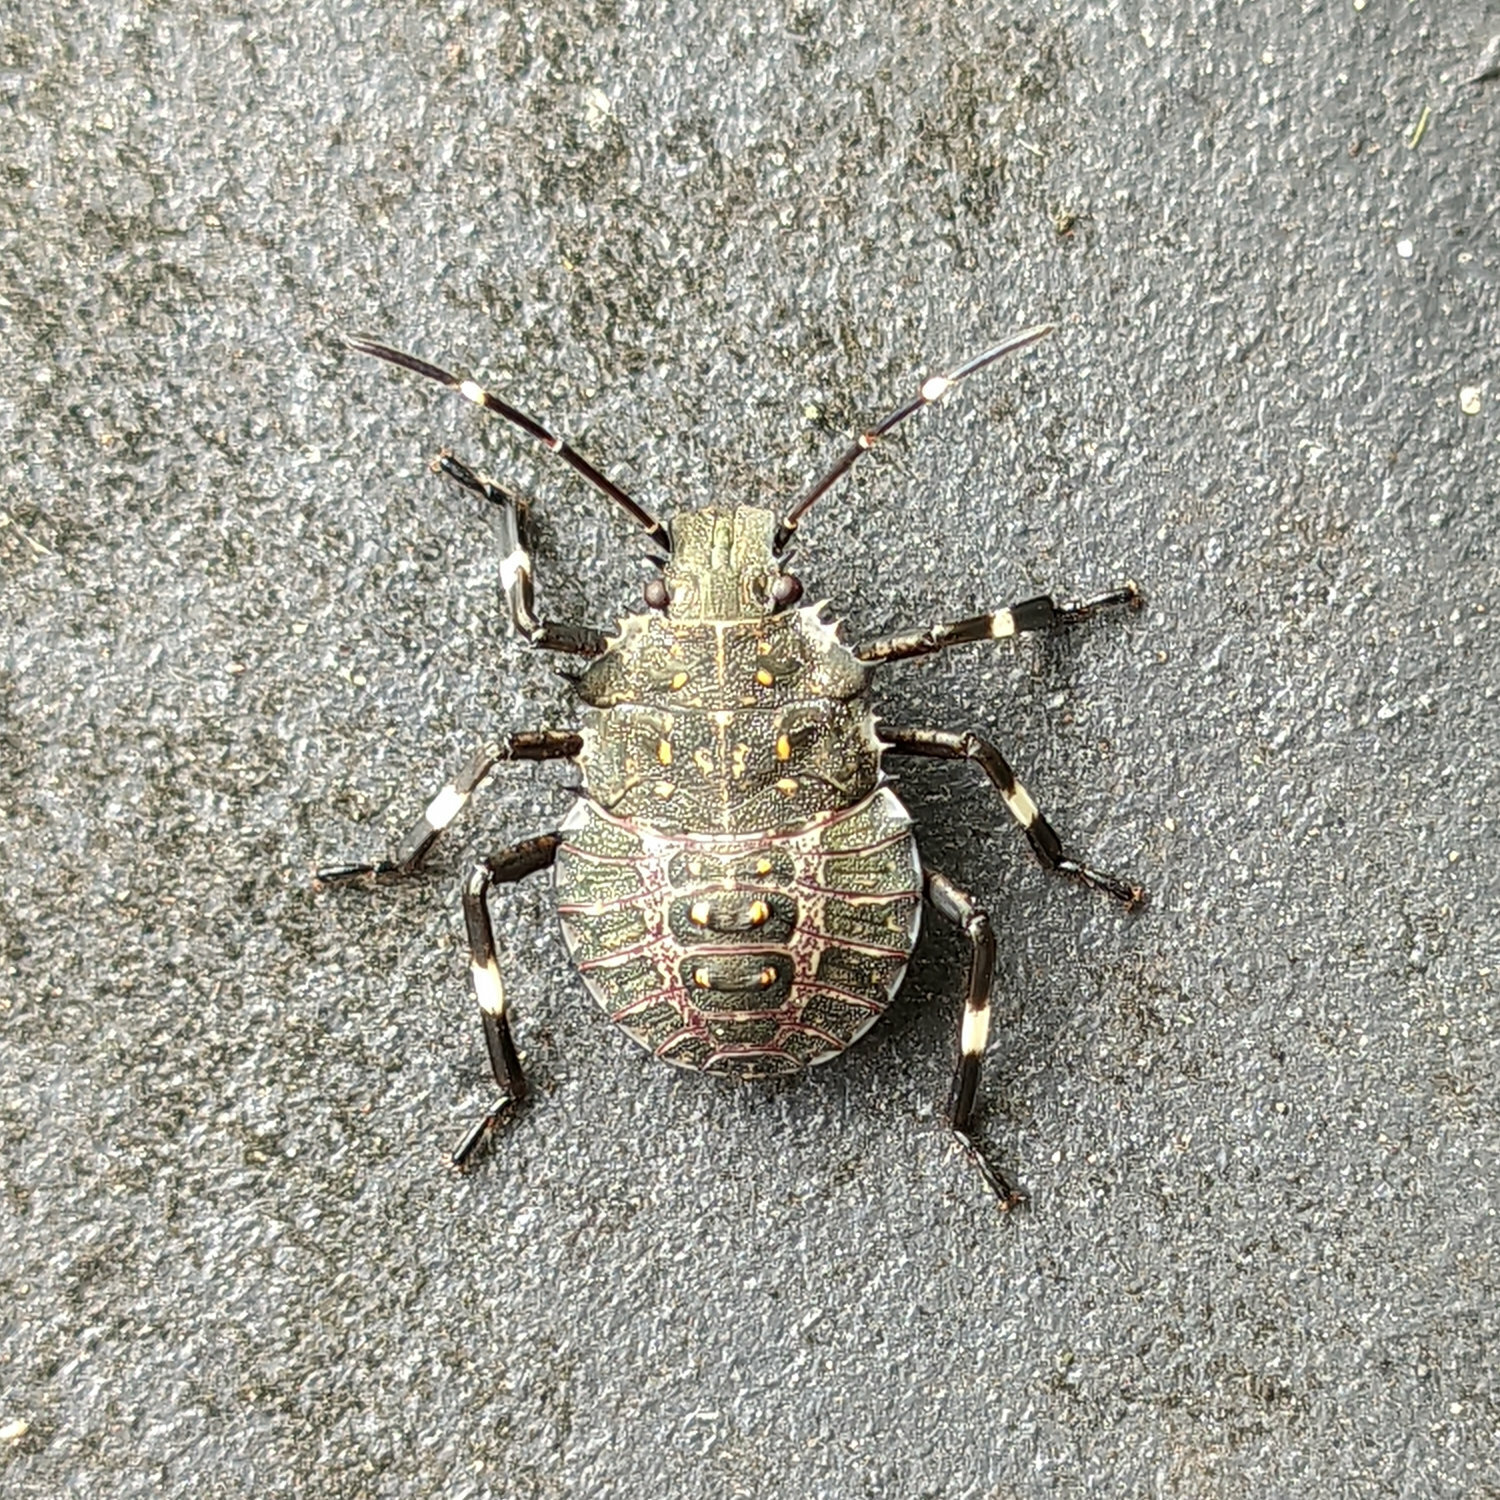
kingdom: Animalia
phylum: Arthropoda
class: Insecta
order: Hemiptera
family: Pentatomidae
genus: Halyomorpha
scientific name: Halyomorpha halys
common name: Brown marmorated stink bug
